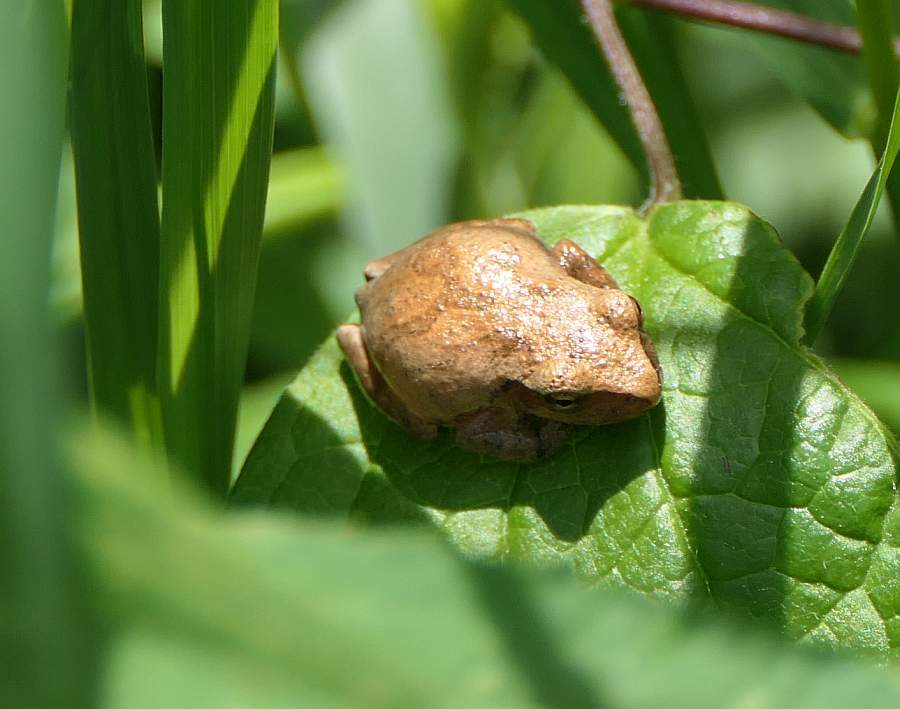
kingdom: Animalia
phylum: Chordata
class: Amphibia
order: Anura
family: Hylidae
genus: Pseudacris
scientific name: Pseudacris crucifer
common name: Spring peeper
